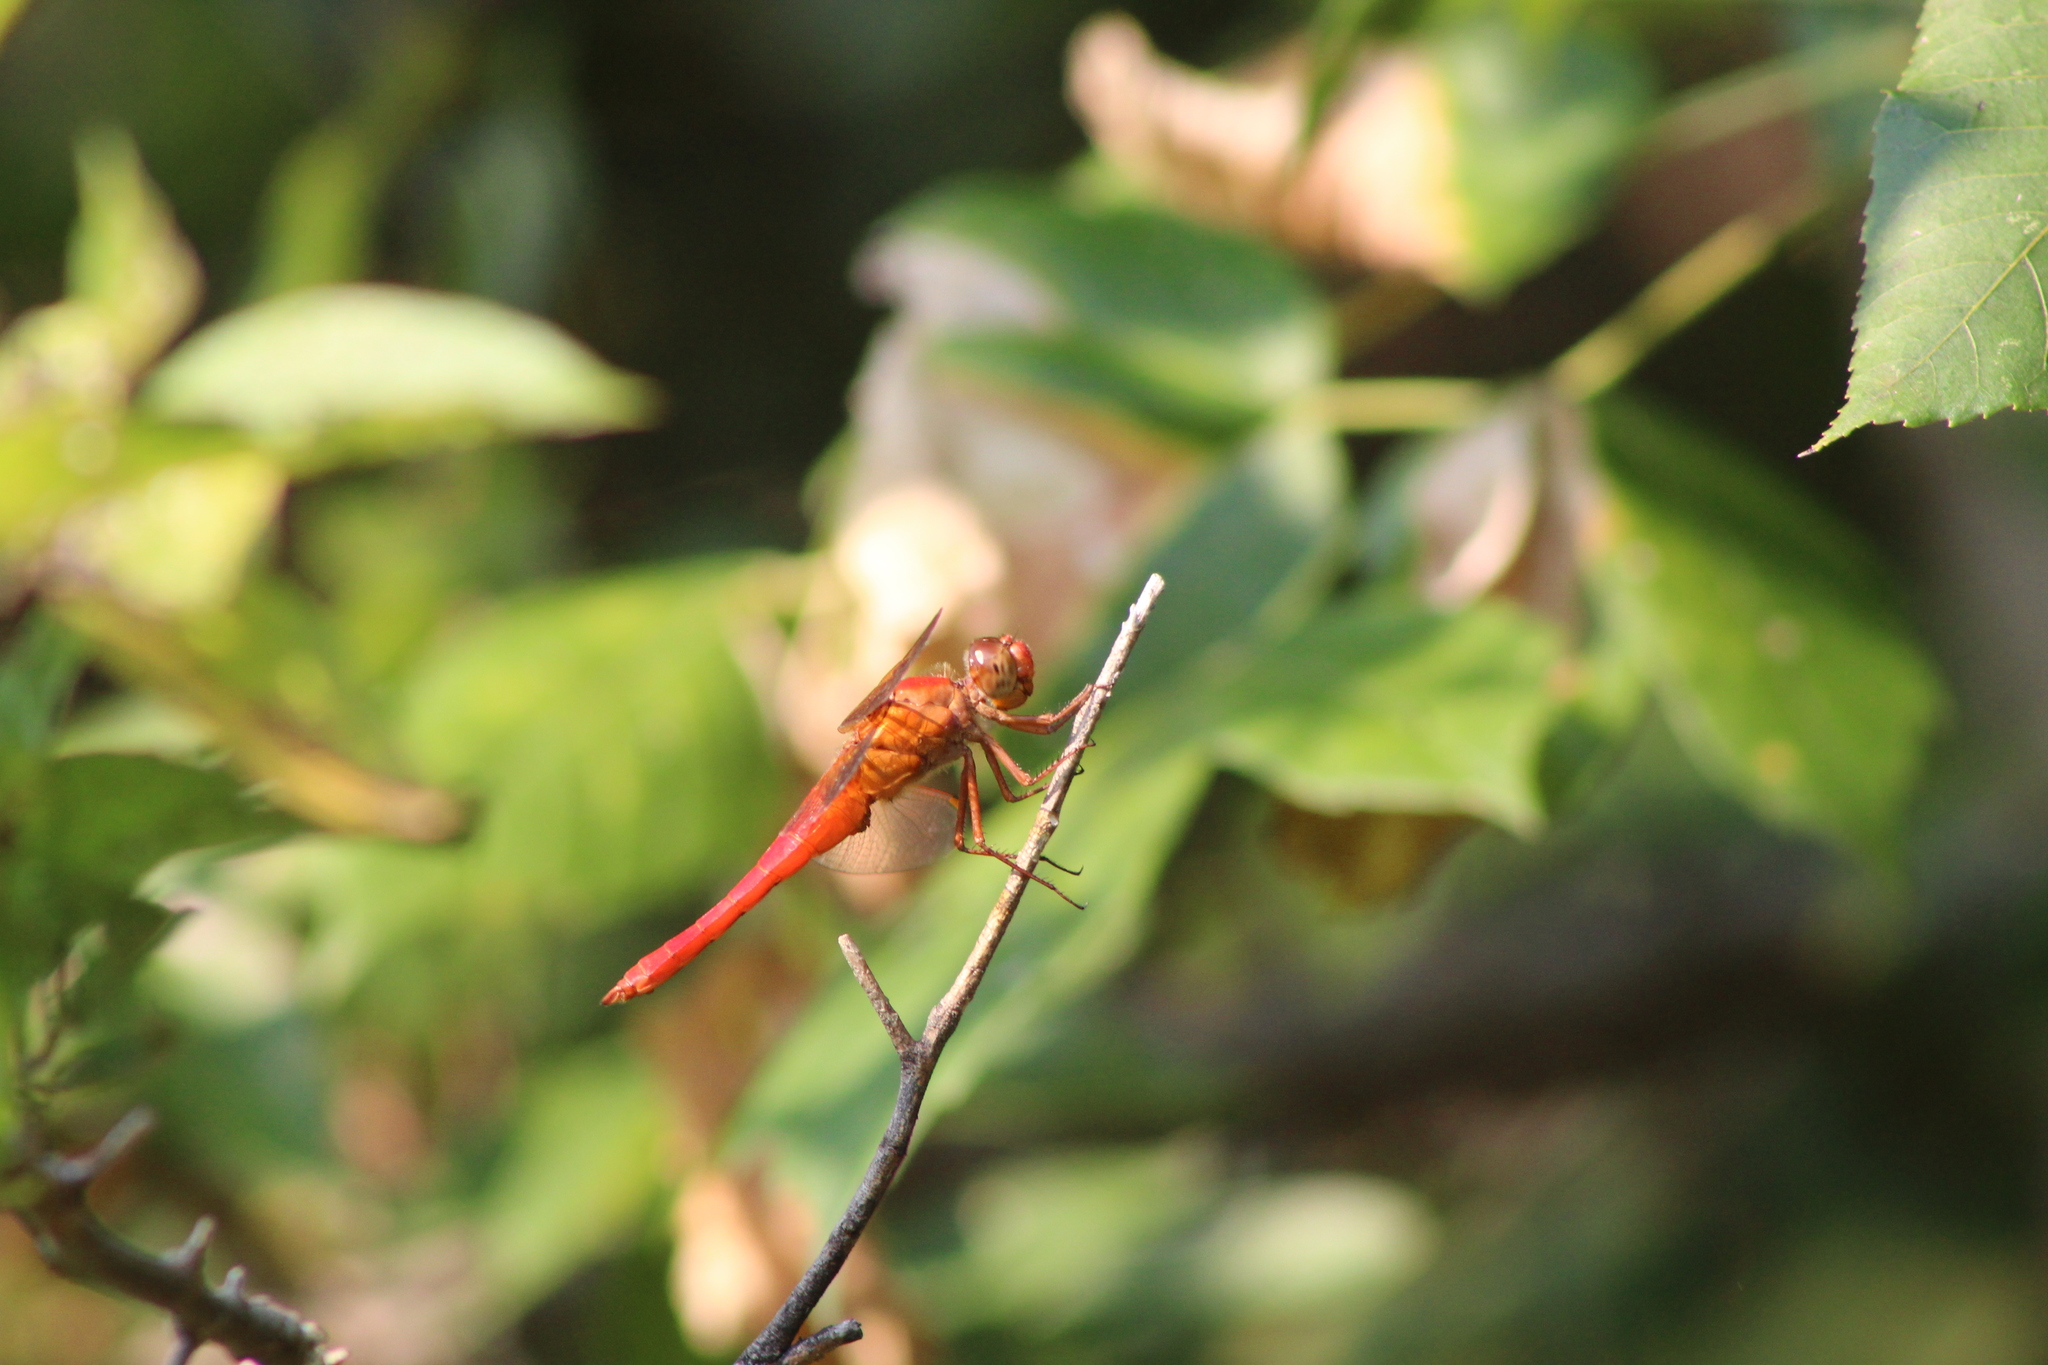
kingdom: Animalia
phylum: Arthropoda
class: Insecta
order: Odonata
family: Libellulidae
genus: Libellula
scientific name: Libellula croceipennis
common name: Neon skimmer
